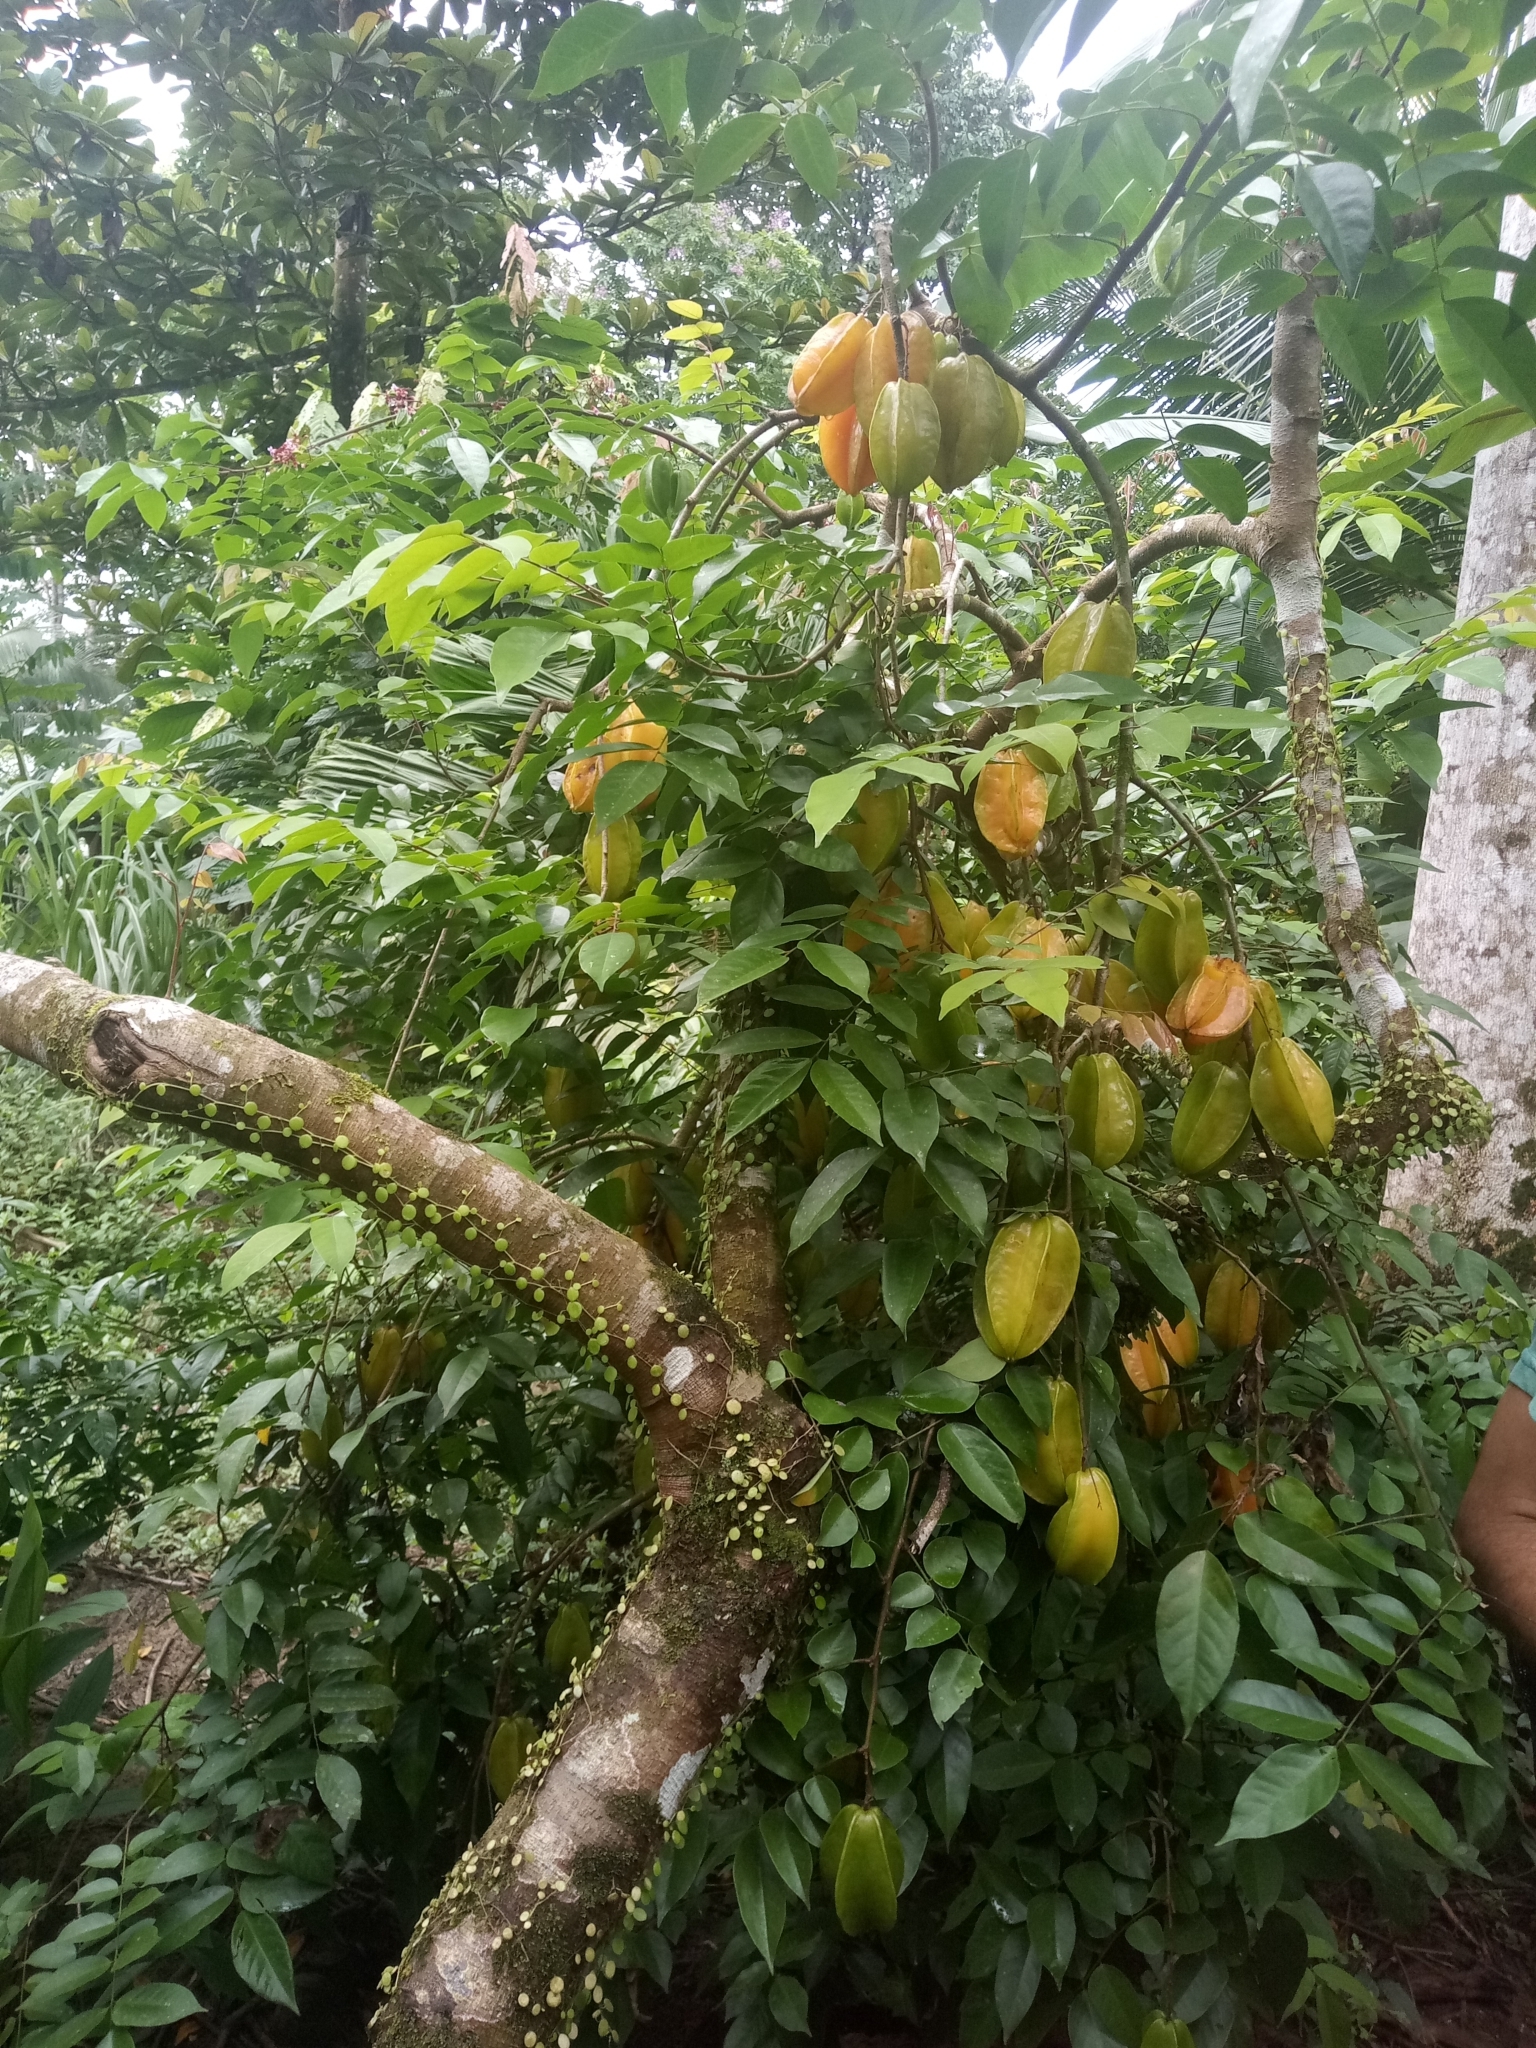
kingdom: Plantae
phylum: Tracheophyta
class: Magnoliopsida
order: Oxalidales
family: Oxalidaceae
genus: Averrhoa
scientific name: Averrhoa carambola
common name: Blimbing
